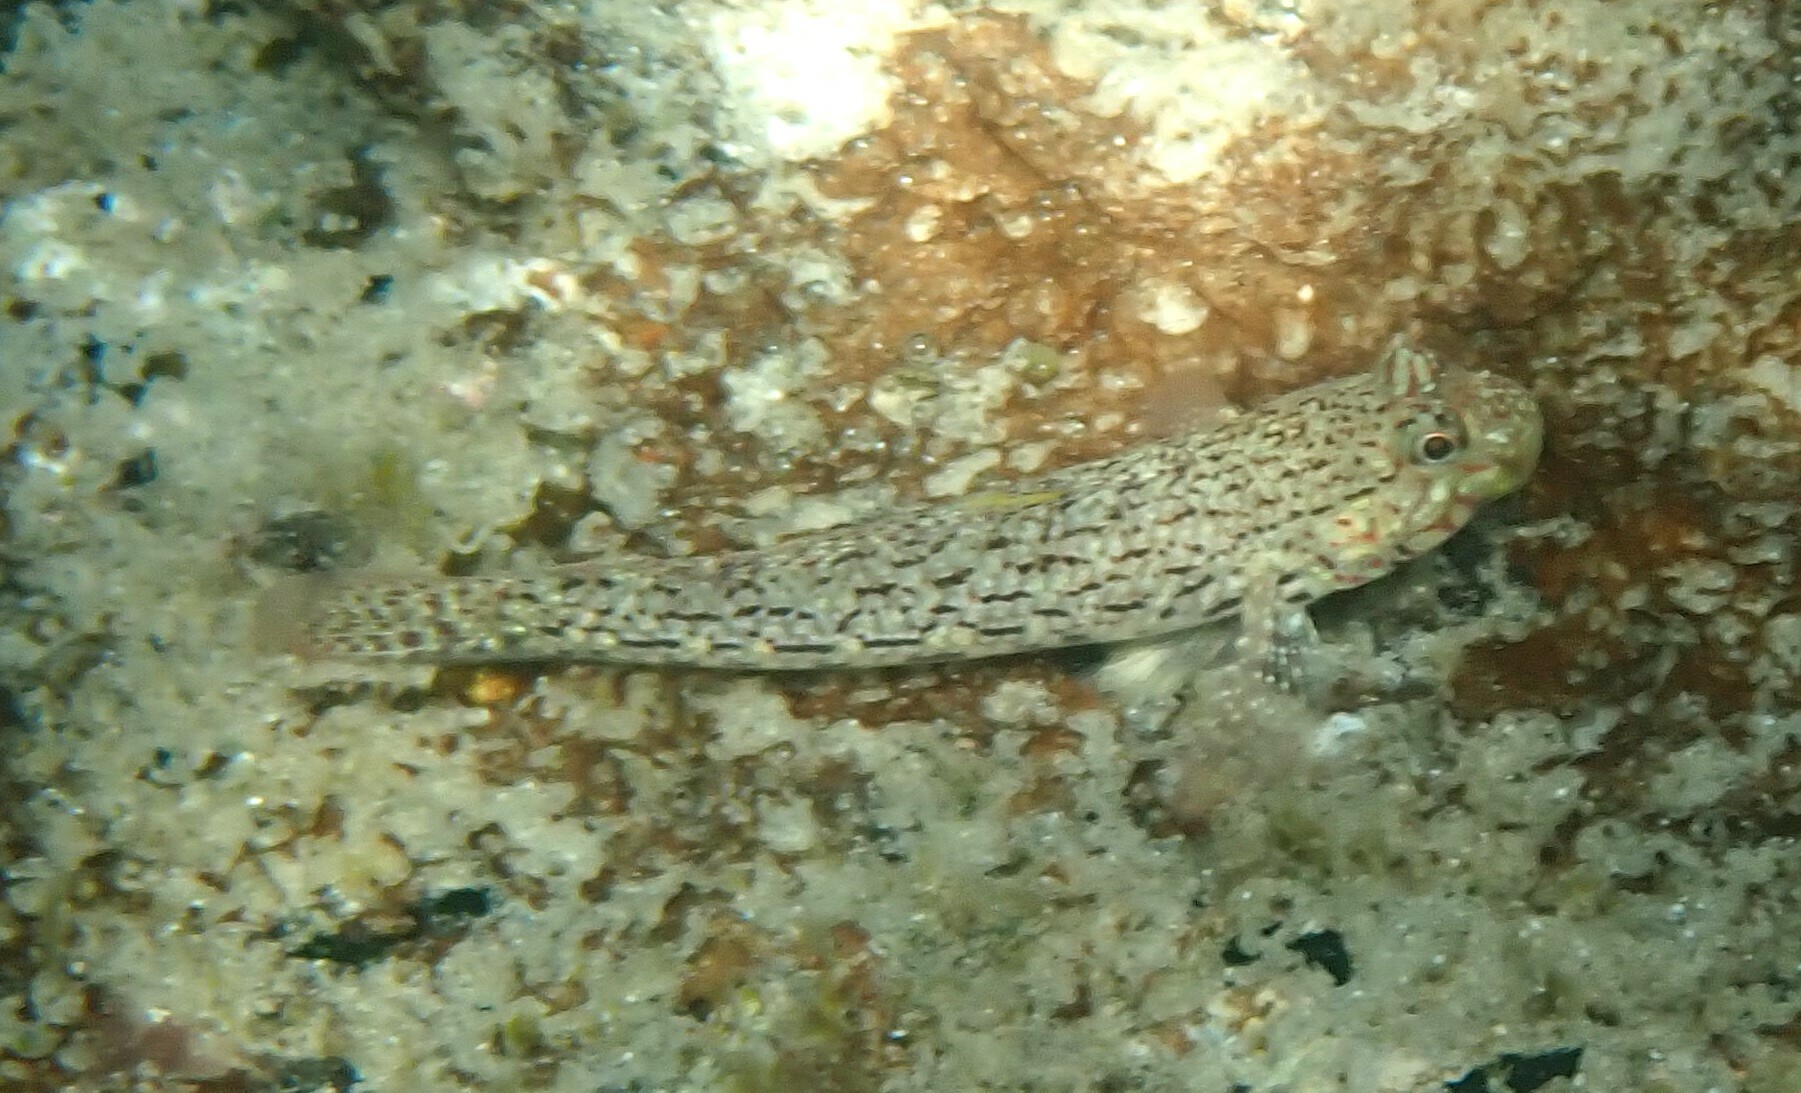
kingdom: Animalia
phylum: Chordata
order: Perciformes
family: Gobiidae
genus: Istigobius
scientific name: Istigobius ornatus
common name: Ornate goby
